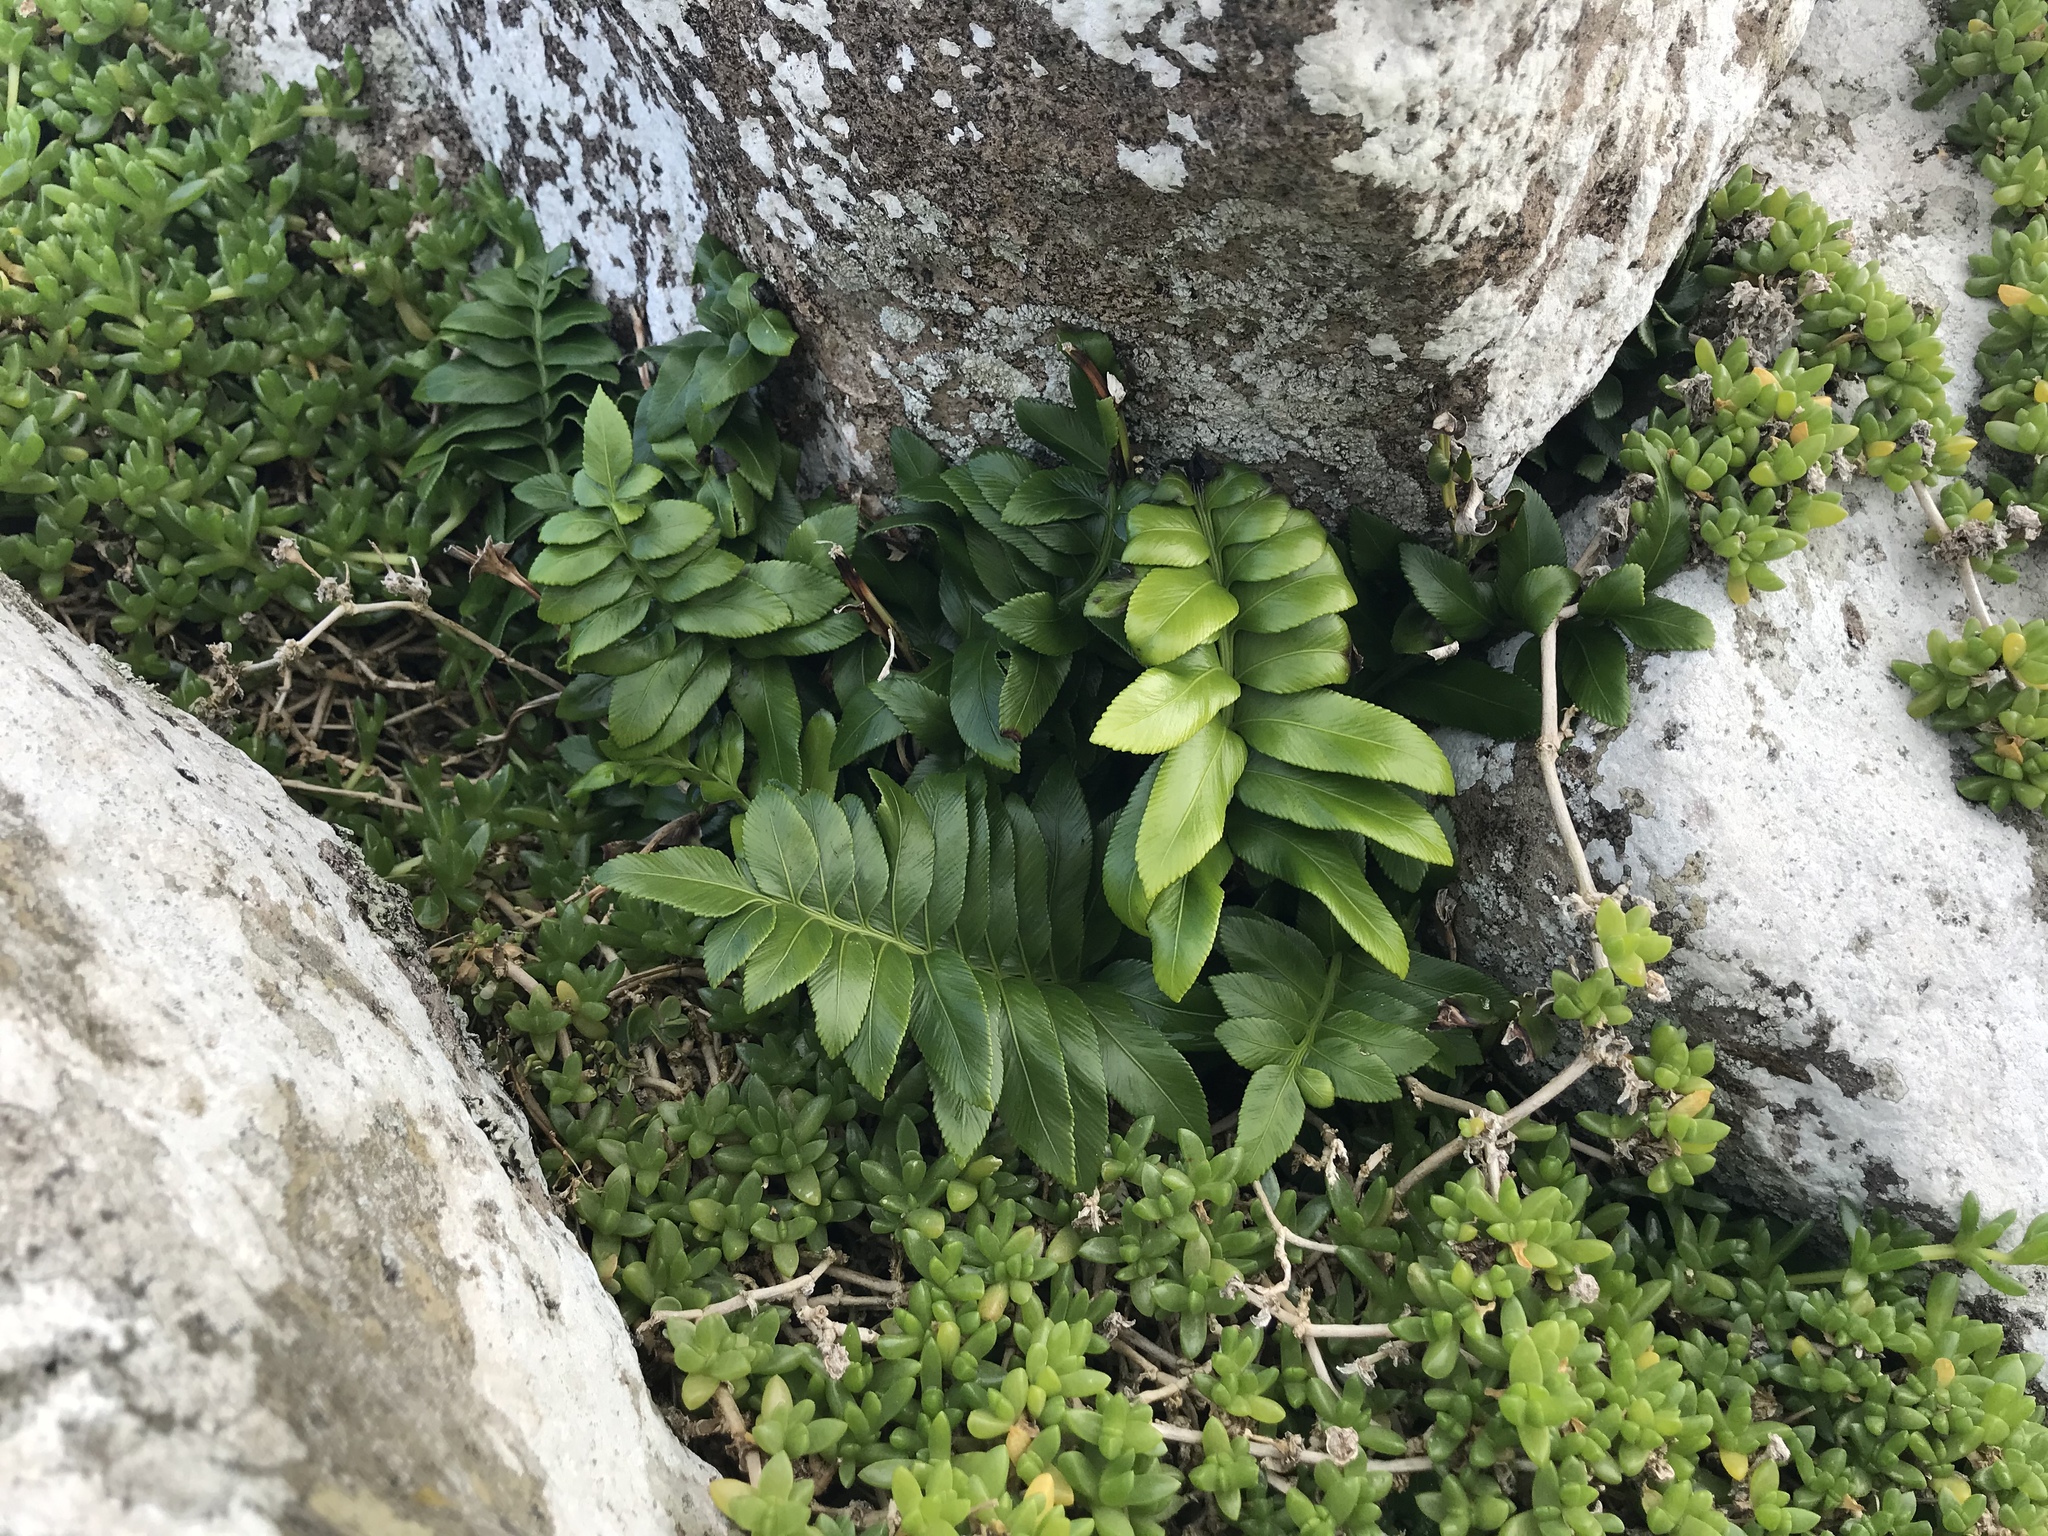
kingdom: Plantae
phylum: Tracheophyta
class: Polypodiopsida
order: Polypodiales
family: Aspleniaceae
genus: Asplenium
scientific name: Asplenium obtusatum
